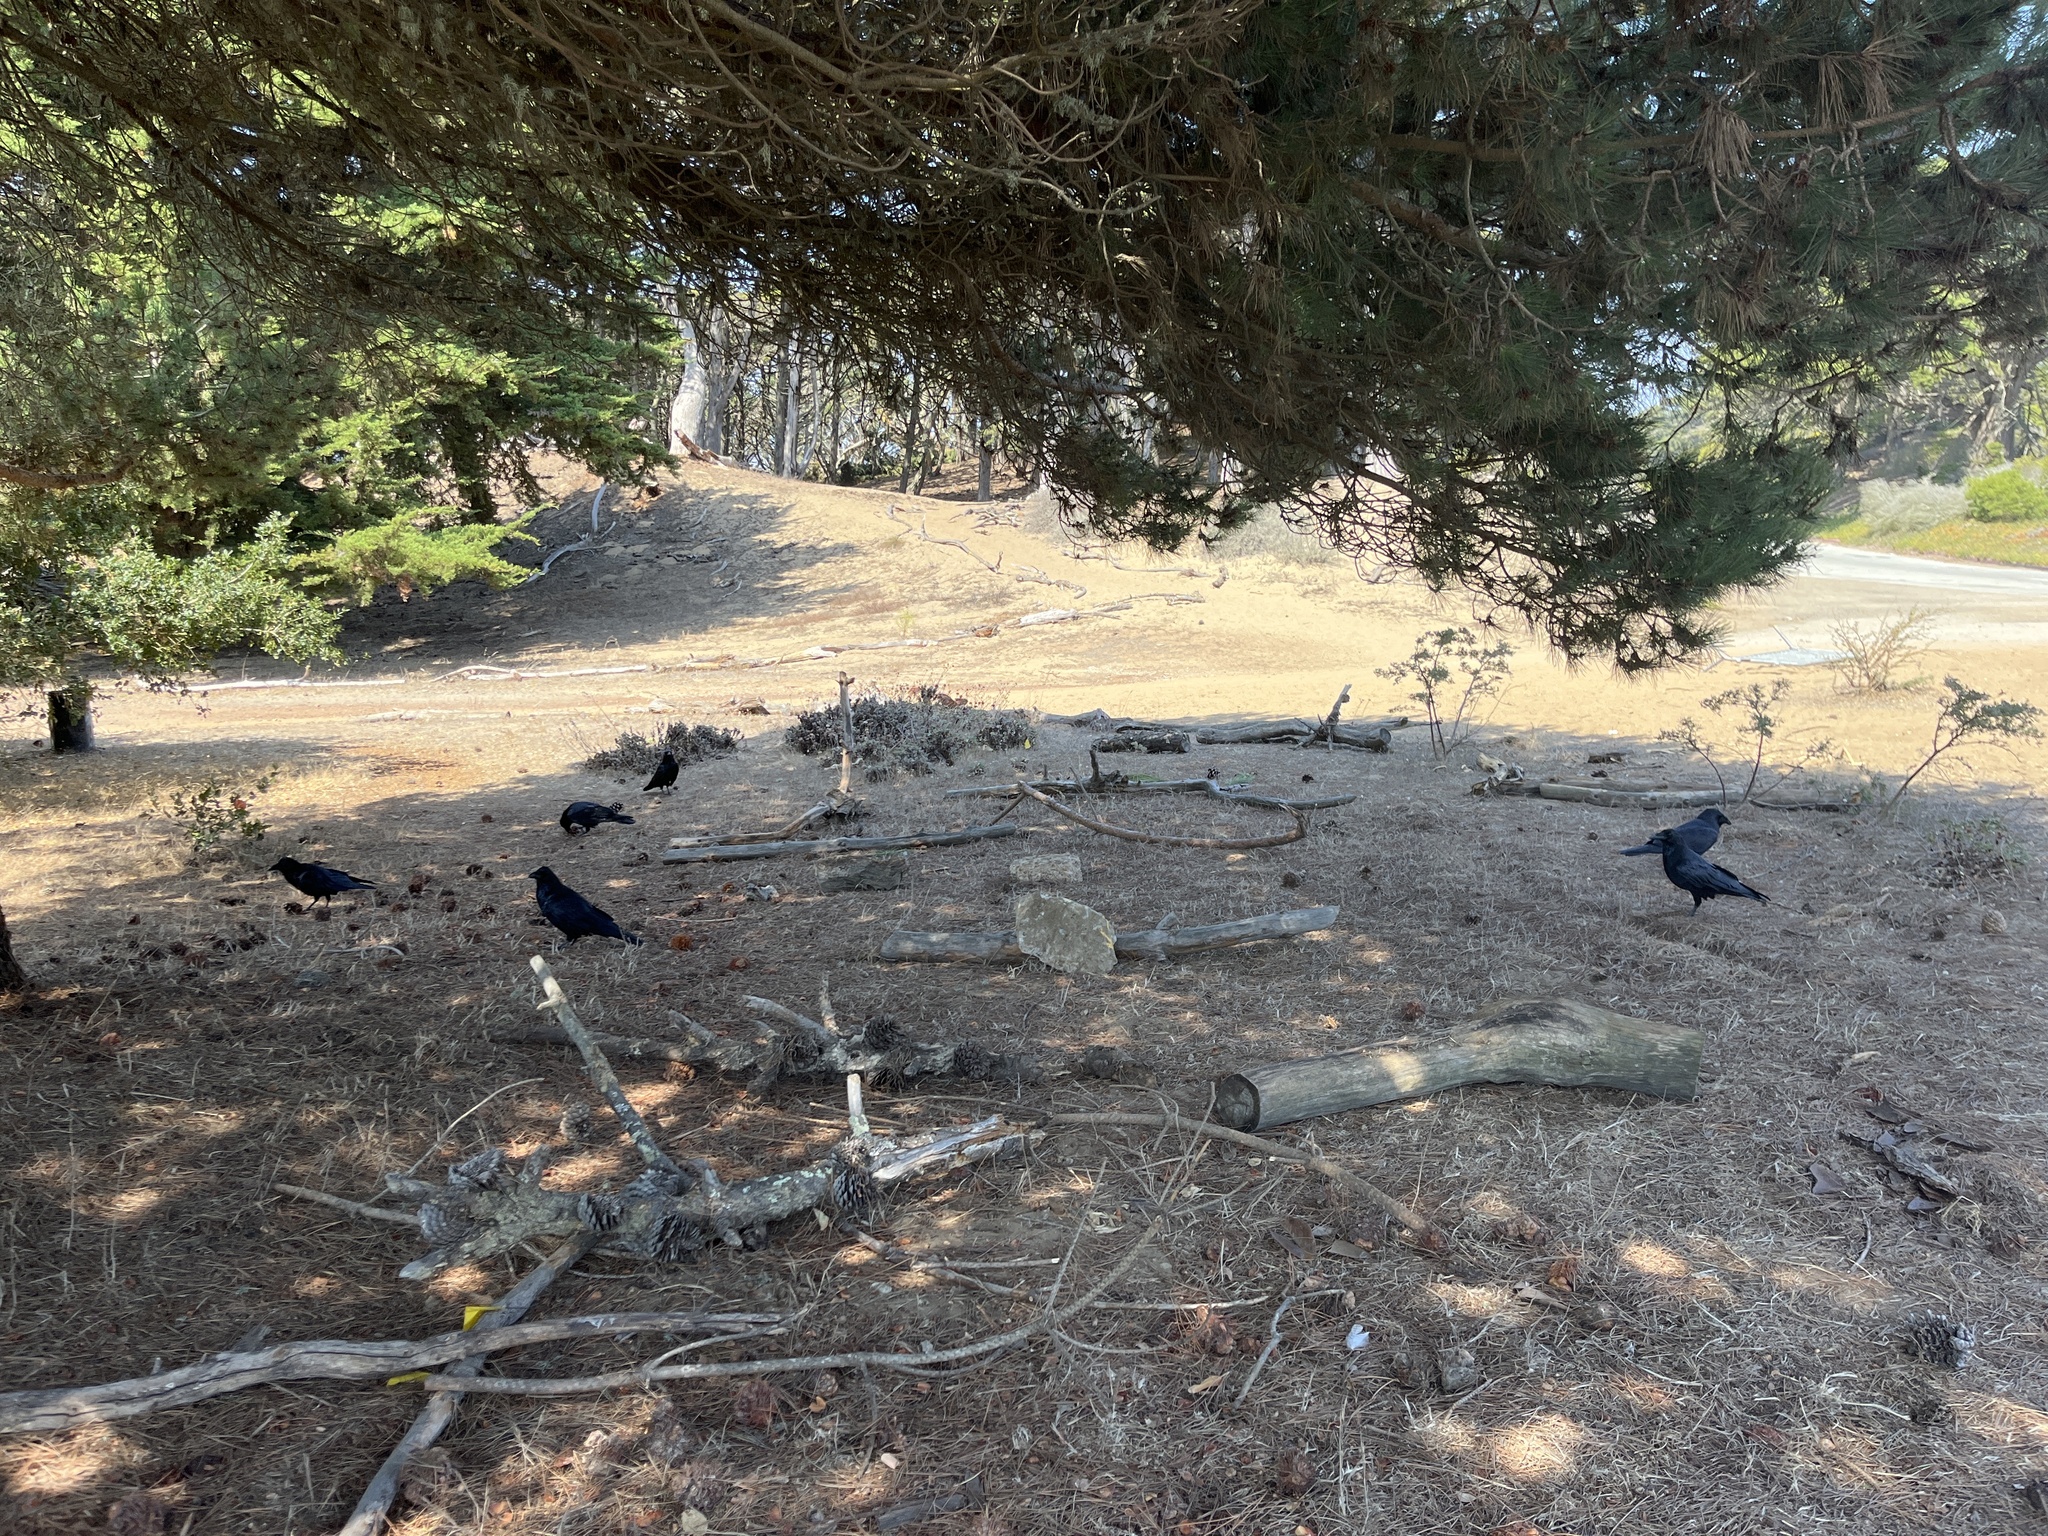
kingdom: Animalia
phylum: Chordata
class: Aves
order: Passeriformes
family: Corvidae
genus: Corvus
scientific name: Corvus corax
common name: Common raven
